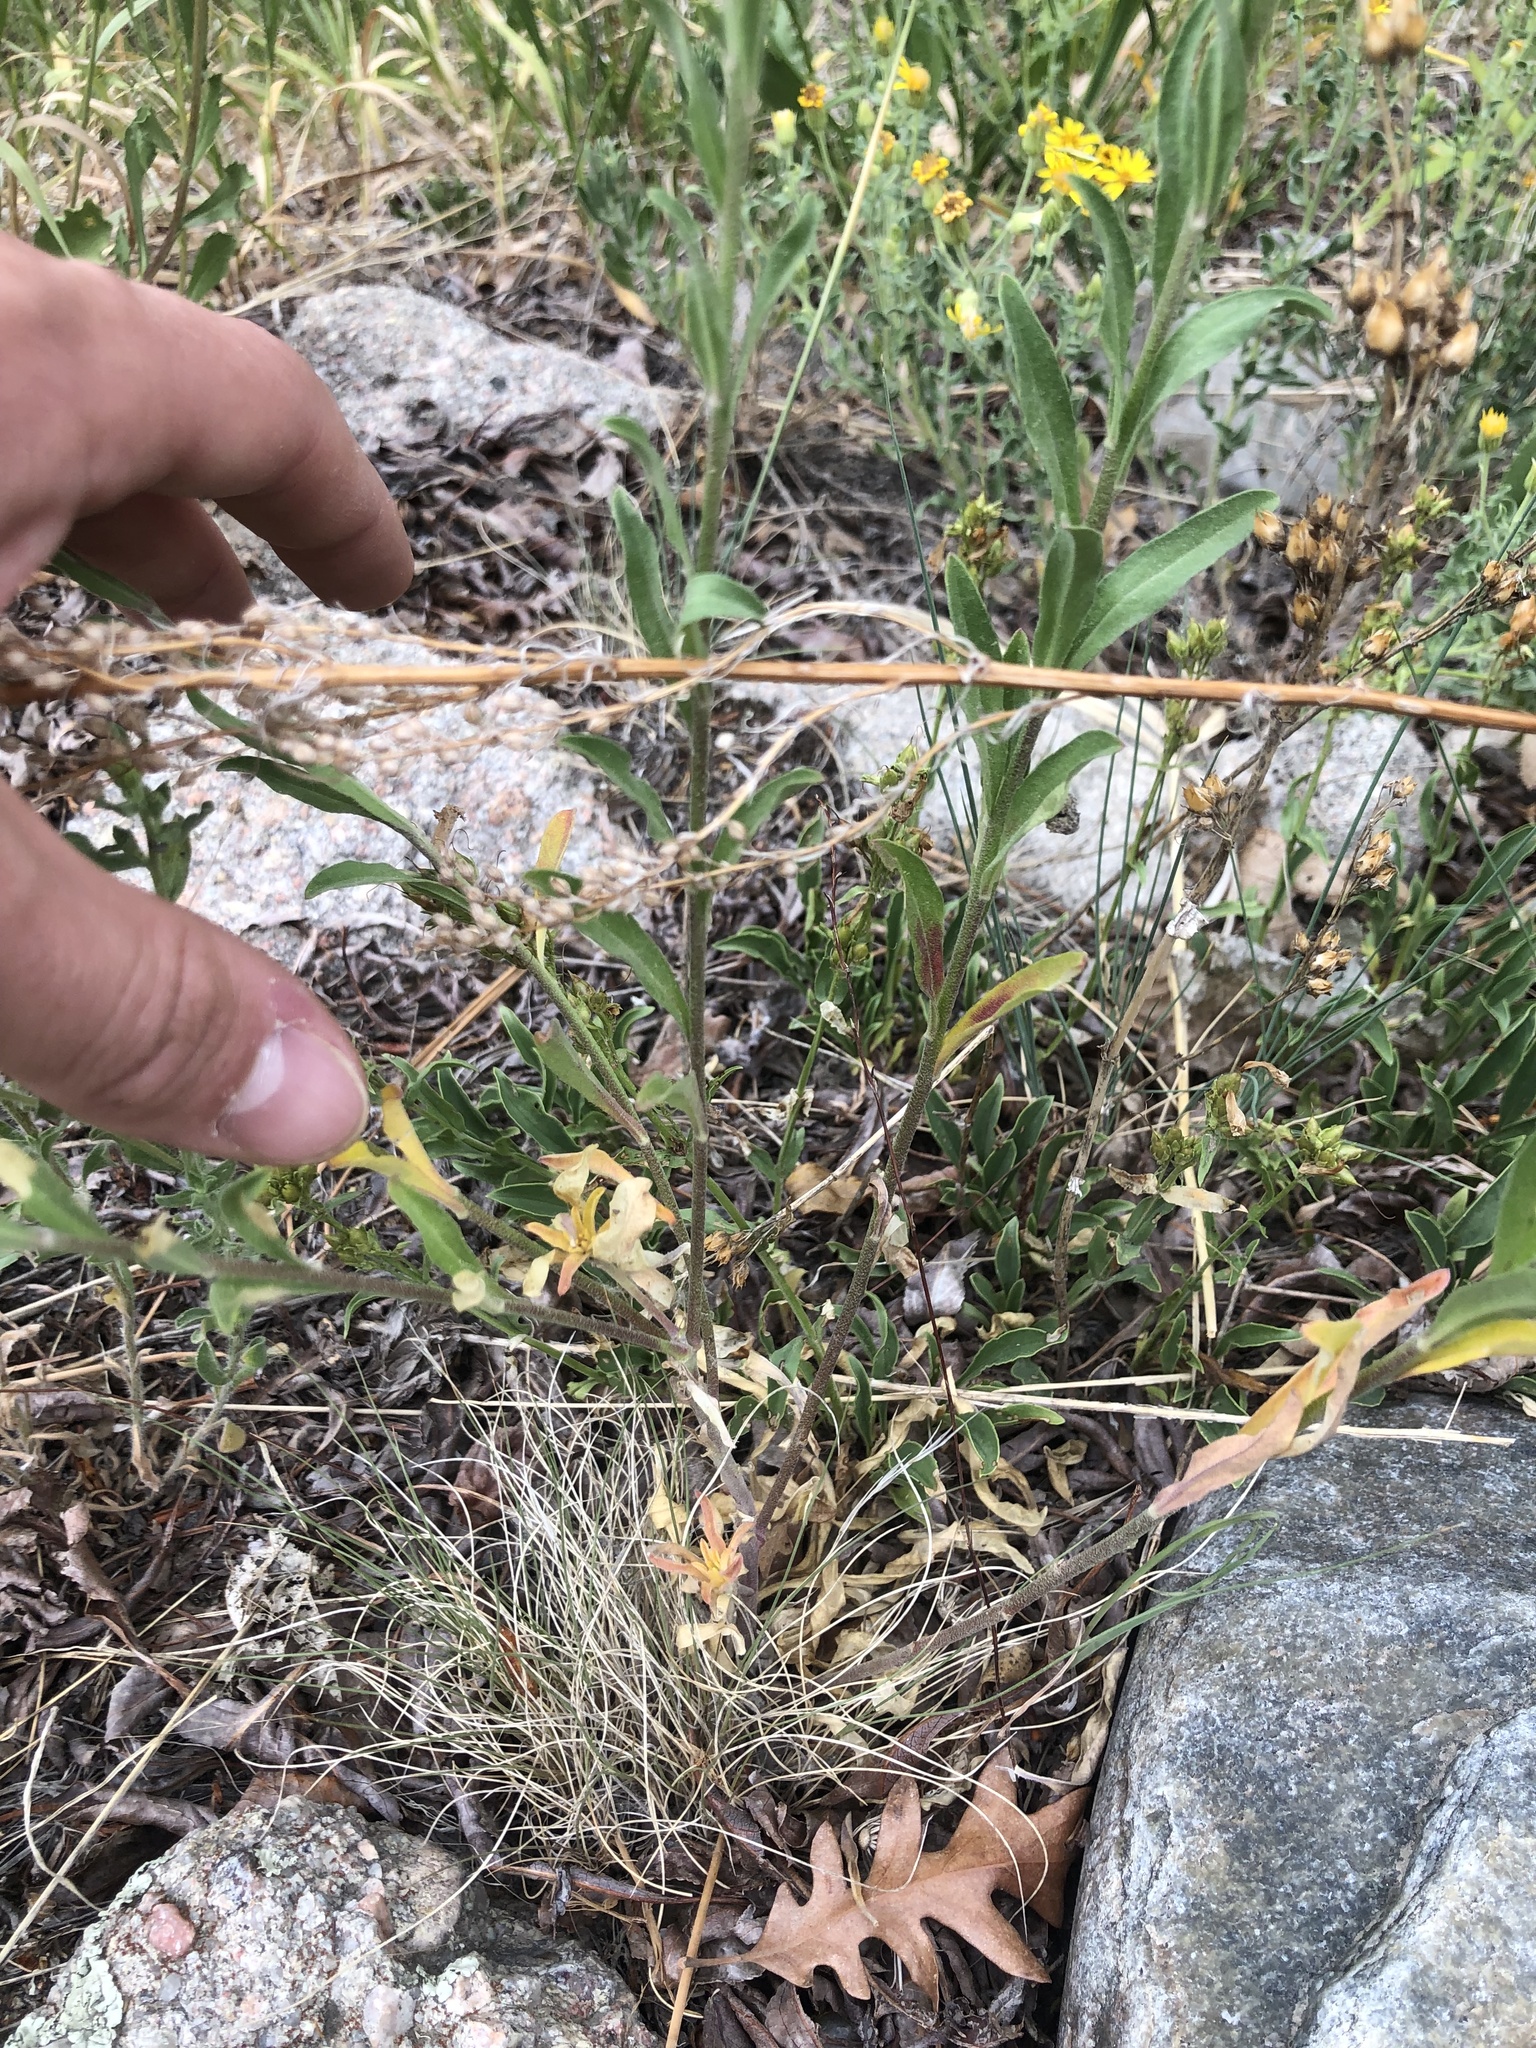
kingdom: Plantae
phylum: Tracheophyta
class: Magnoliopsida
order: Brassicales
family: Brassicaceae
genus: Berteroa
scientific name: Berteroa incana
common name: Hoary alison
